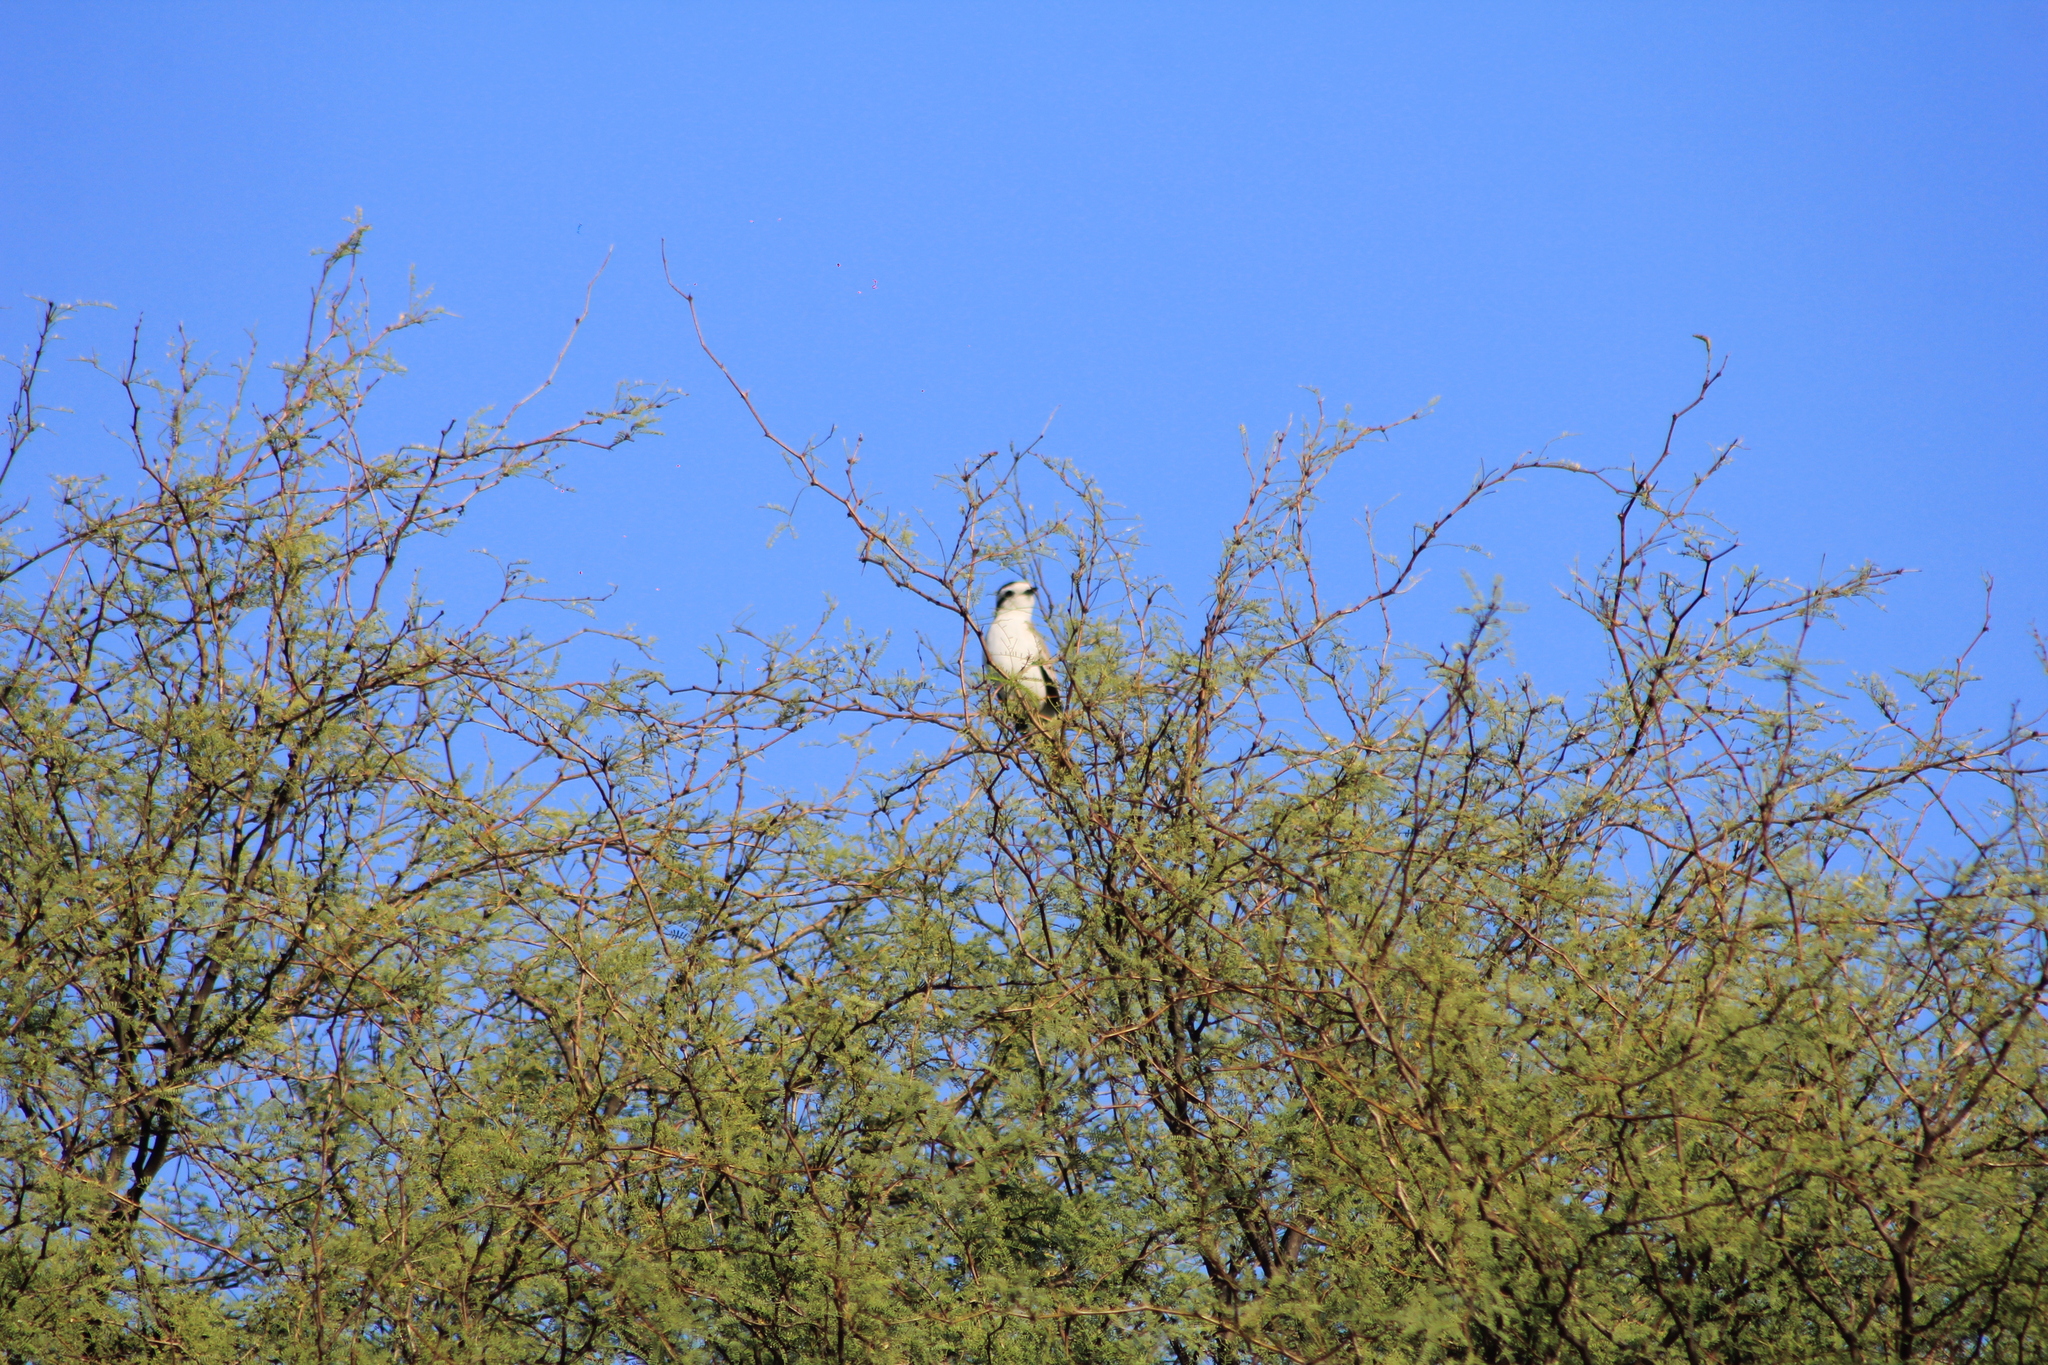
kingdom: Animalia
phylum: Chordata
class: Aves
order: Passeriformes
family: Tyrannidae
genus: Xolmis
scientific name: Xolmis coronatus
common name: Black-crowned monjita
